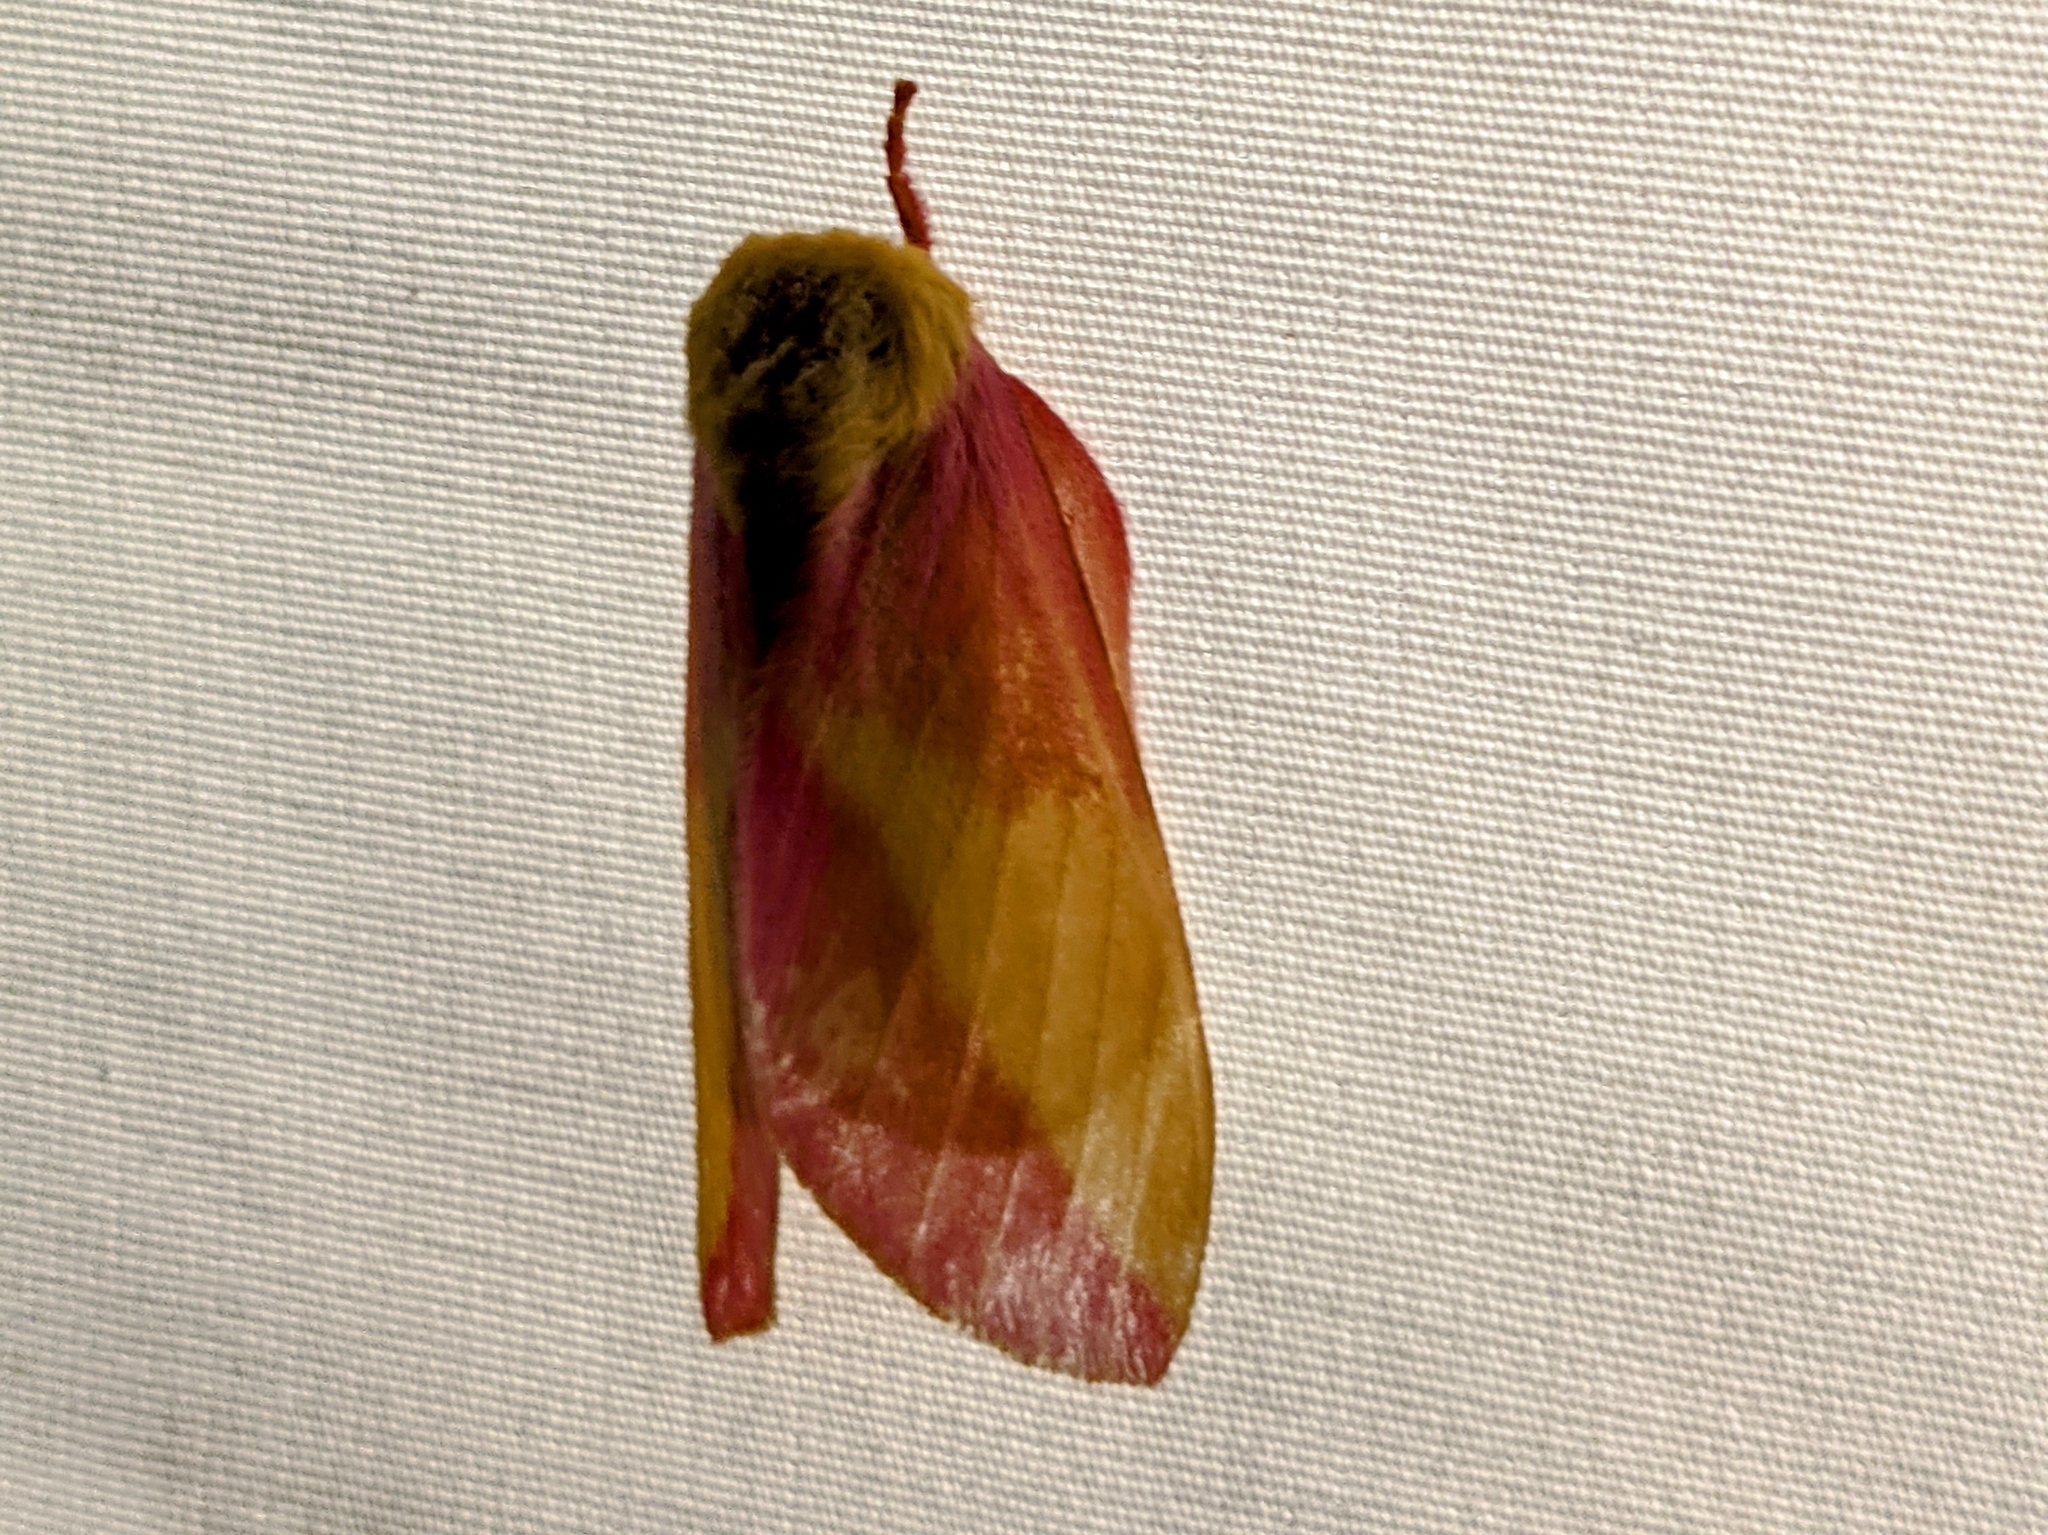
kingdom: Animalia
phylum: Arthropoda
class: Insecta
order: Lepidoptera
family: Saturniidae
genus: Dryocampa
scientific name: Dryocampa rubicunda
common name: Rosy maple moth
